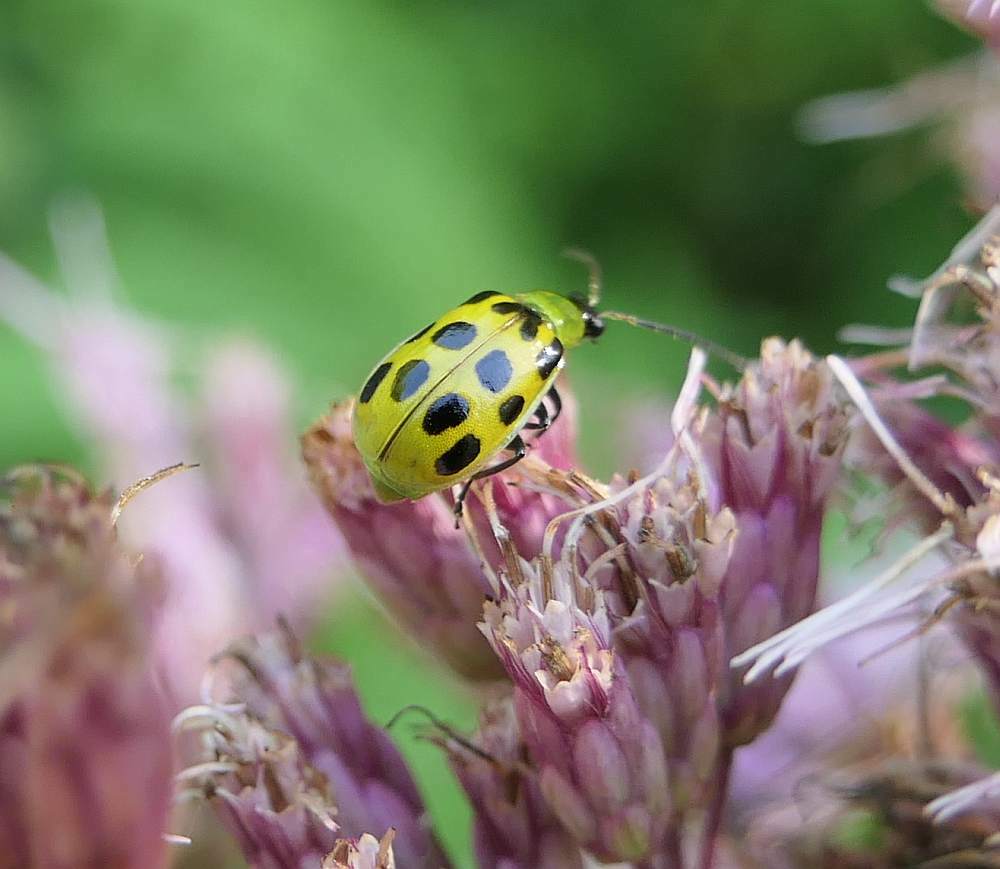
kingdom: Animalia
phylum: Arthropoda
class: Insecta
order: Coleoptera
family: Chrysomelidae
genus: Diabrotica
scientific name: Diabrotica undecimpunctata
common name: Spotted cucumber beetle
